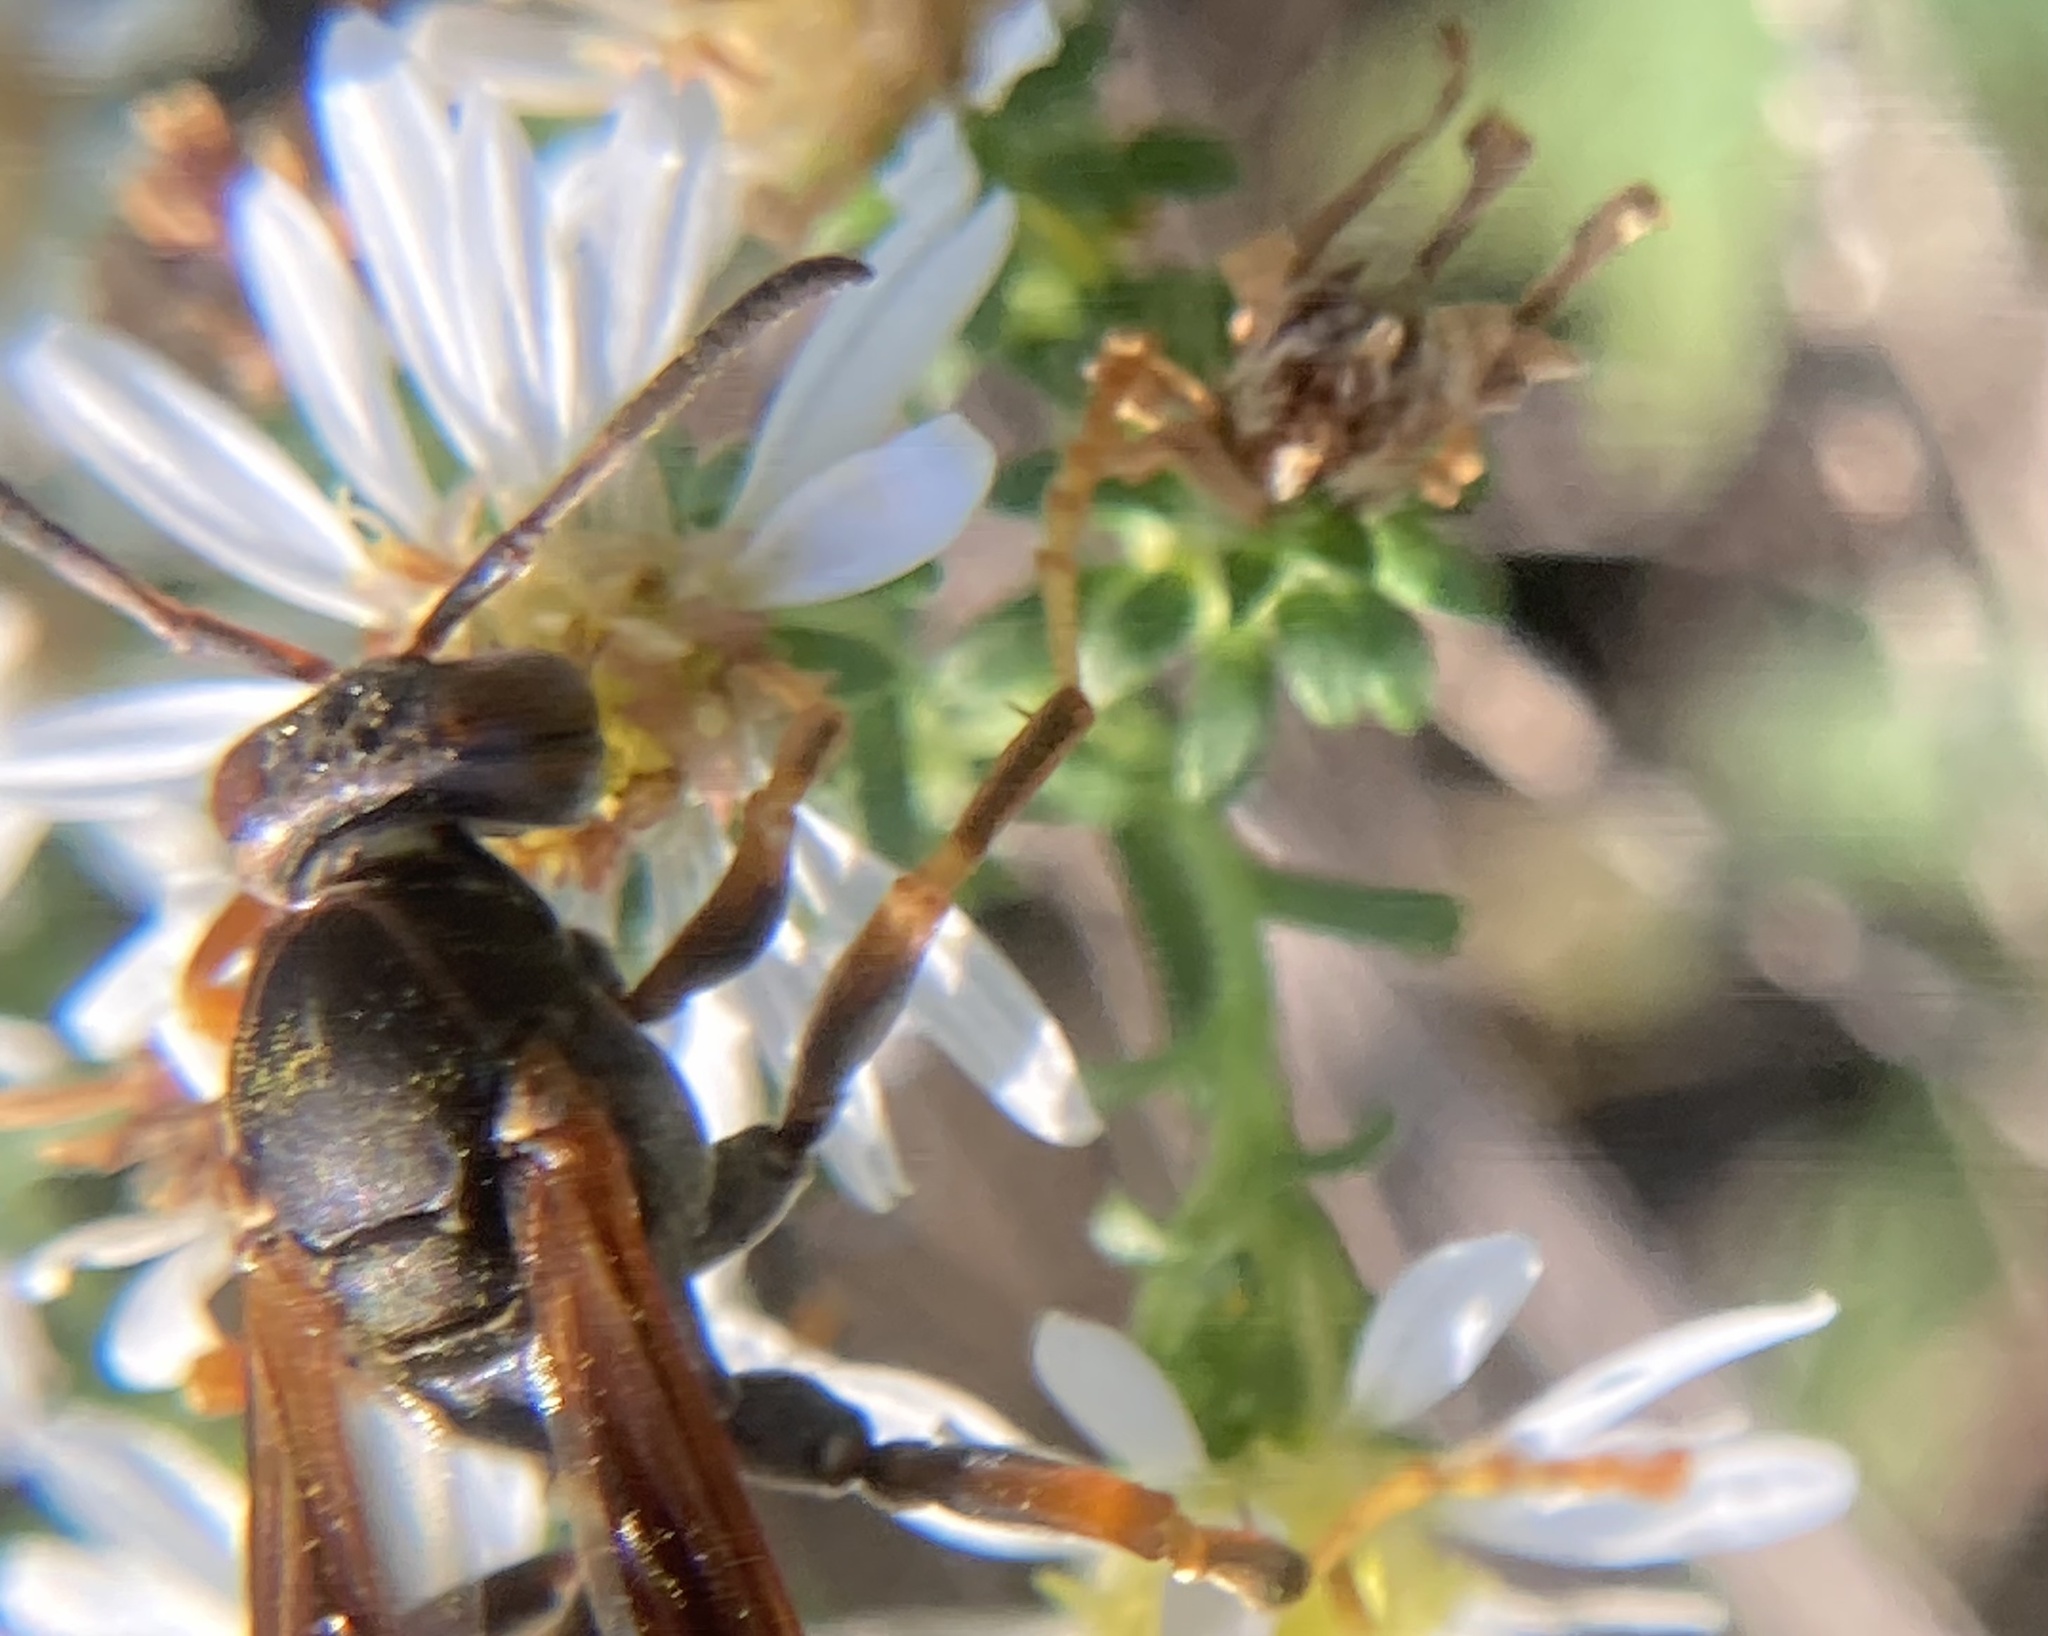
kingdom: Animalia
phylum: Arthropoda
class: Insecta
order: Hymenoptera
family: Eumenidae
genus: Polistes
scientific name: Polistes fuscatus
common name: Dark paper wasp
